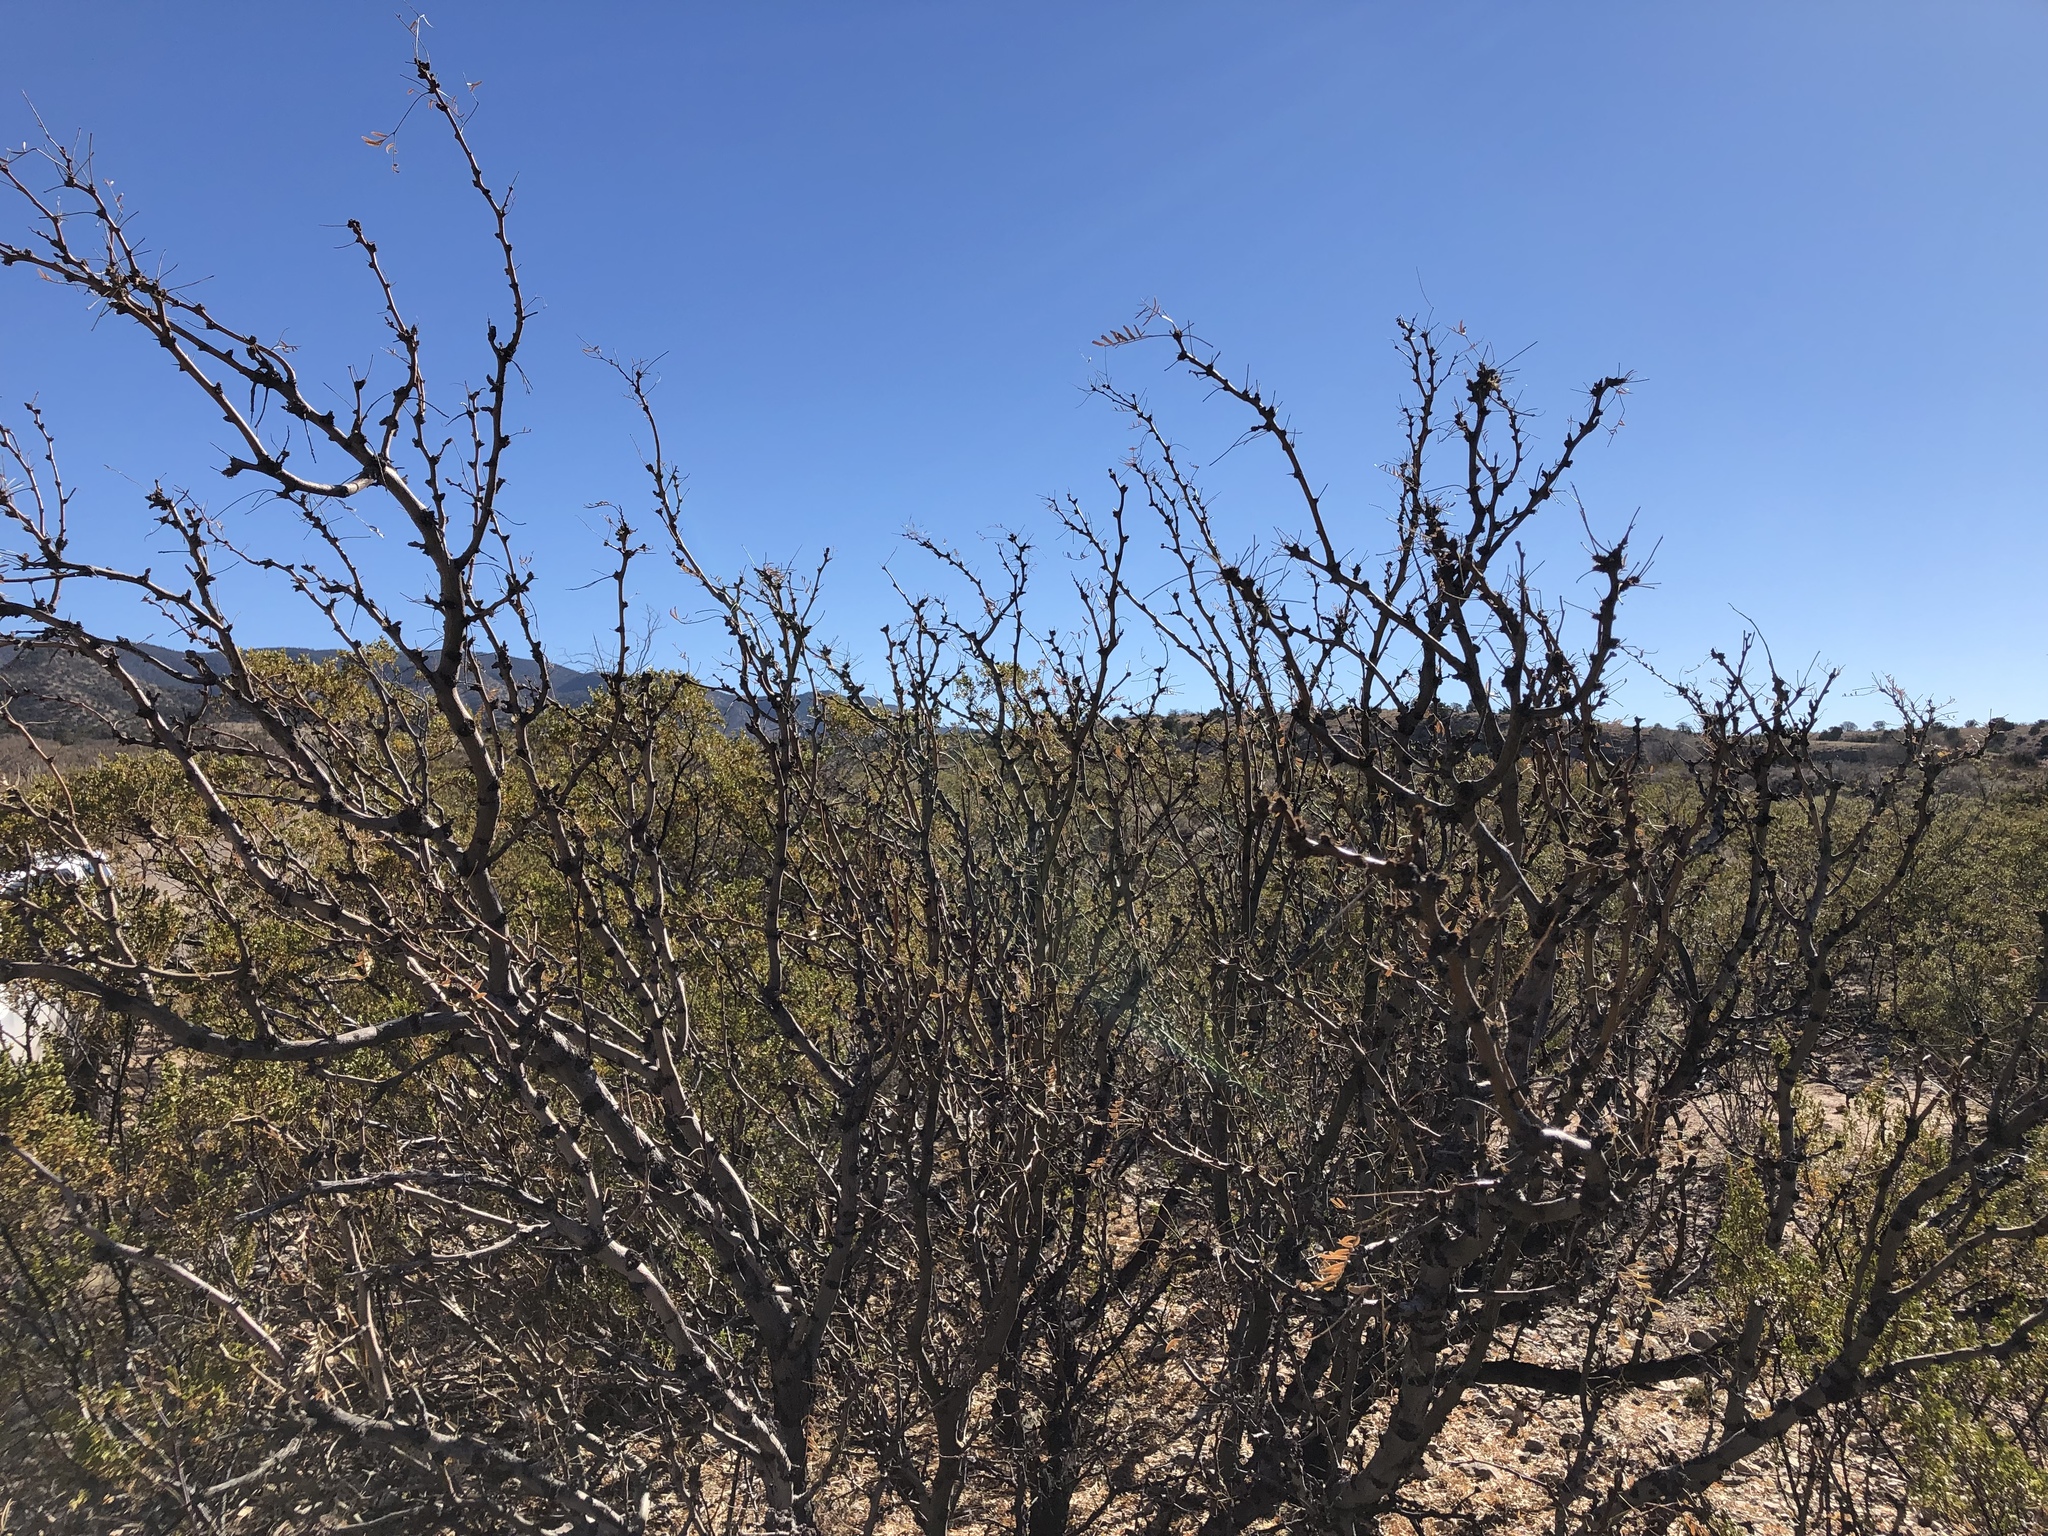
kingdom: Plantae
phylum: Tracheophyta
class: Magnoliopsida
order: Fabales
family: Fabaceae
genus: Prosopis
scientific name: Prosopis glandulosa
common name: Honey mesquite
